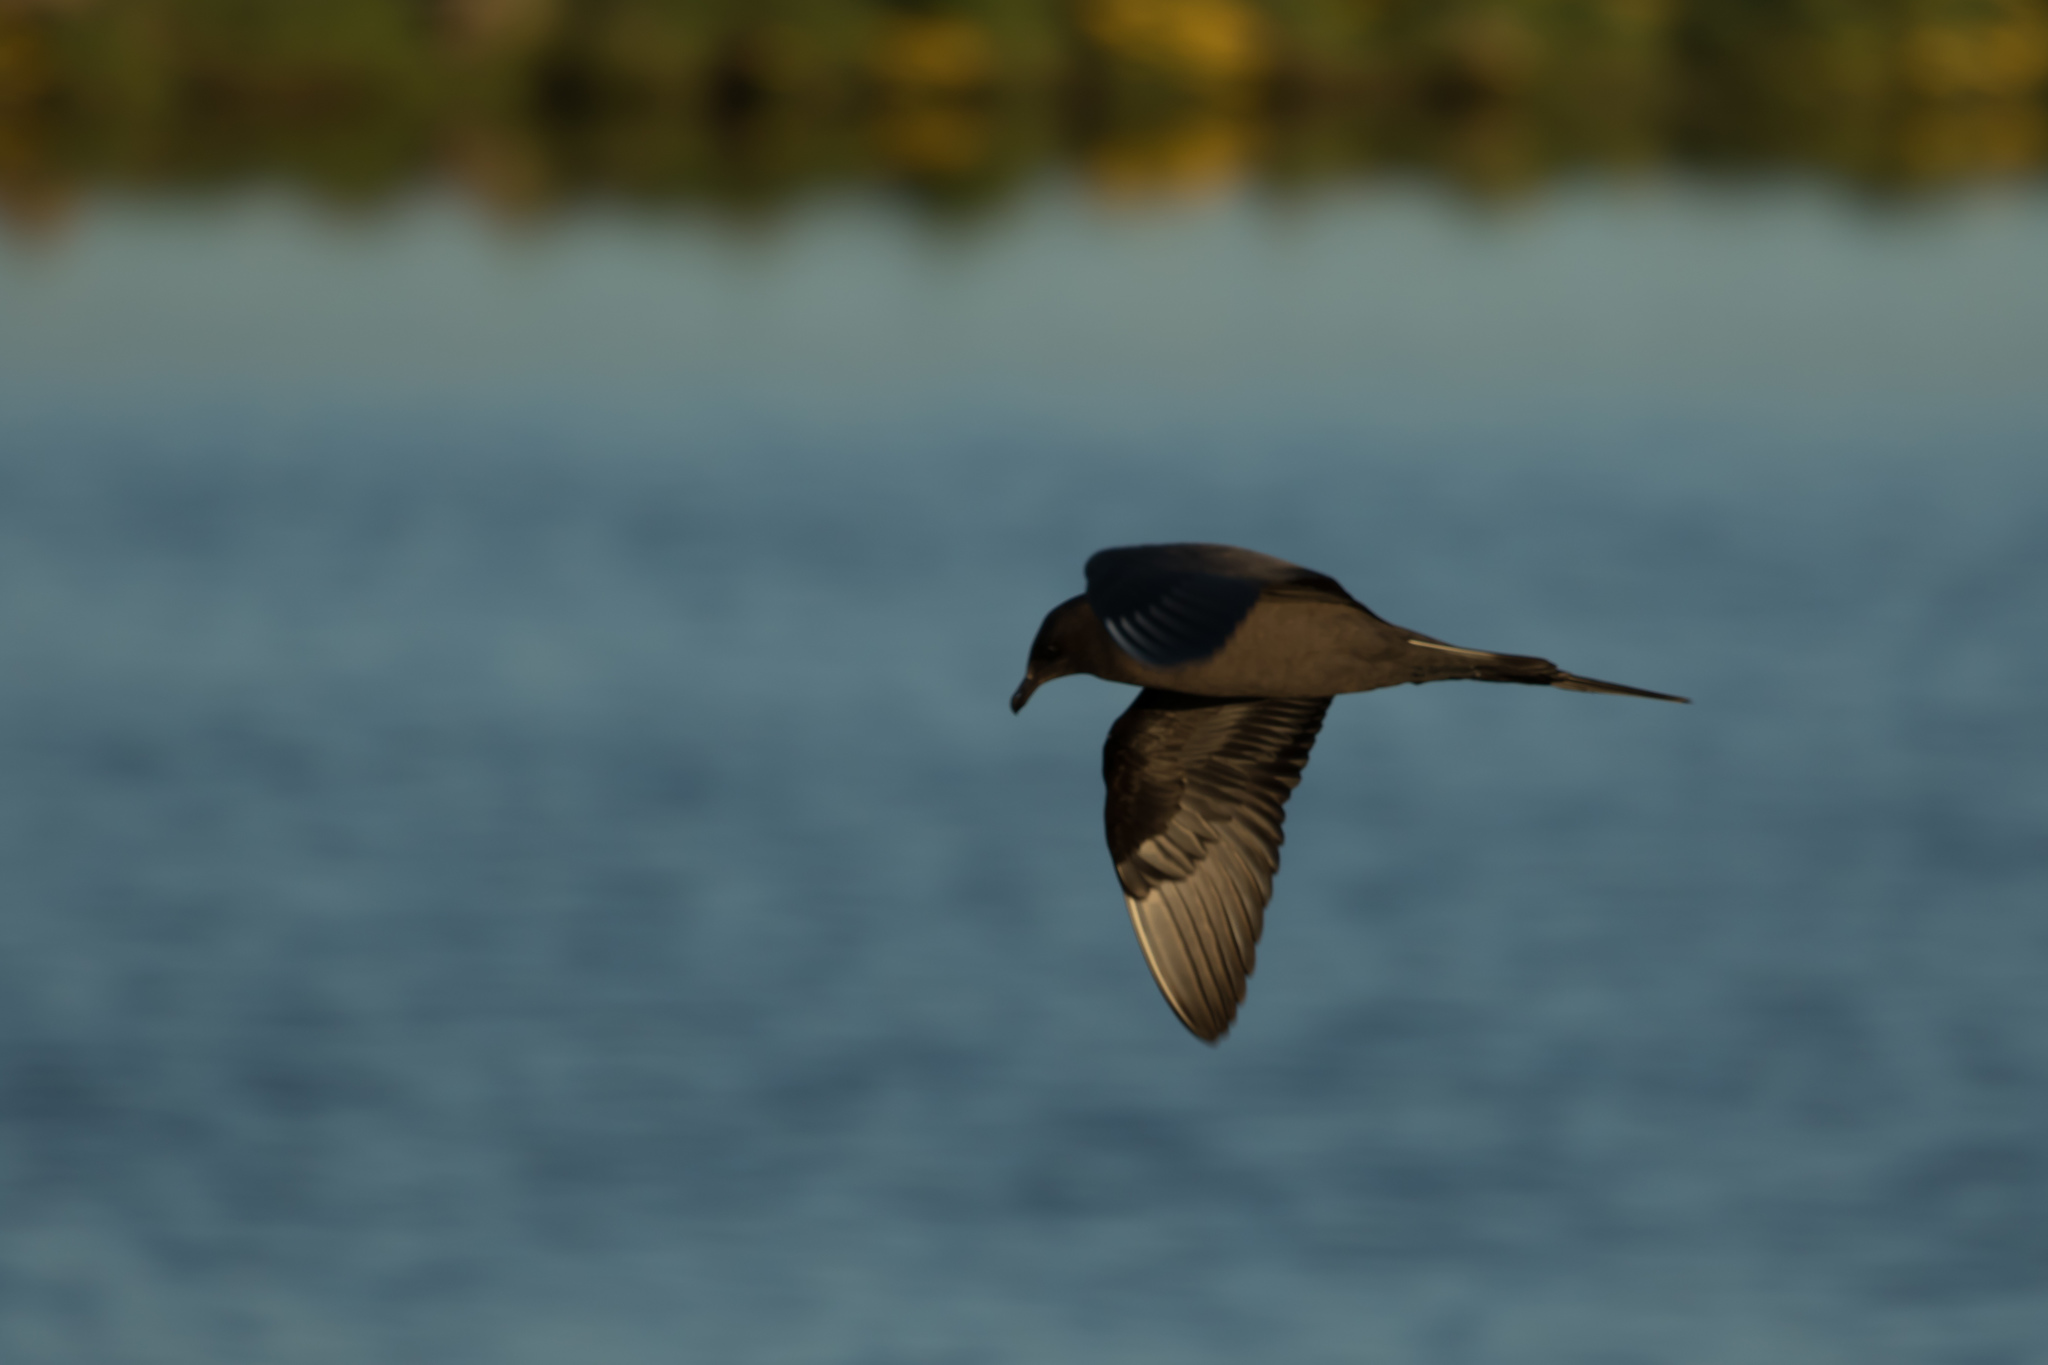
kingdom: Animalia
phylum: Chordata
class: Aves
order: Charadriiformes
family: Stercorariidae
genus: Stercorarius
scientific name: Stercorarius parasiticus
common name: Parasitic jaeger
